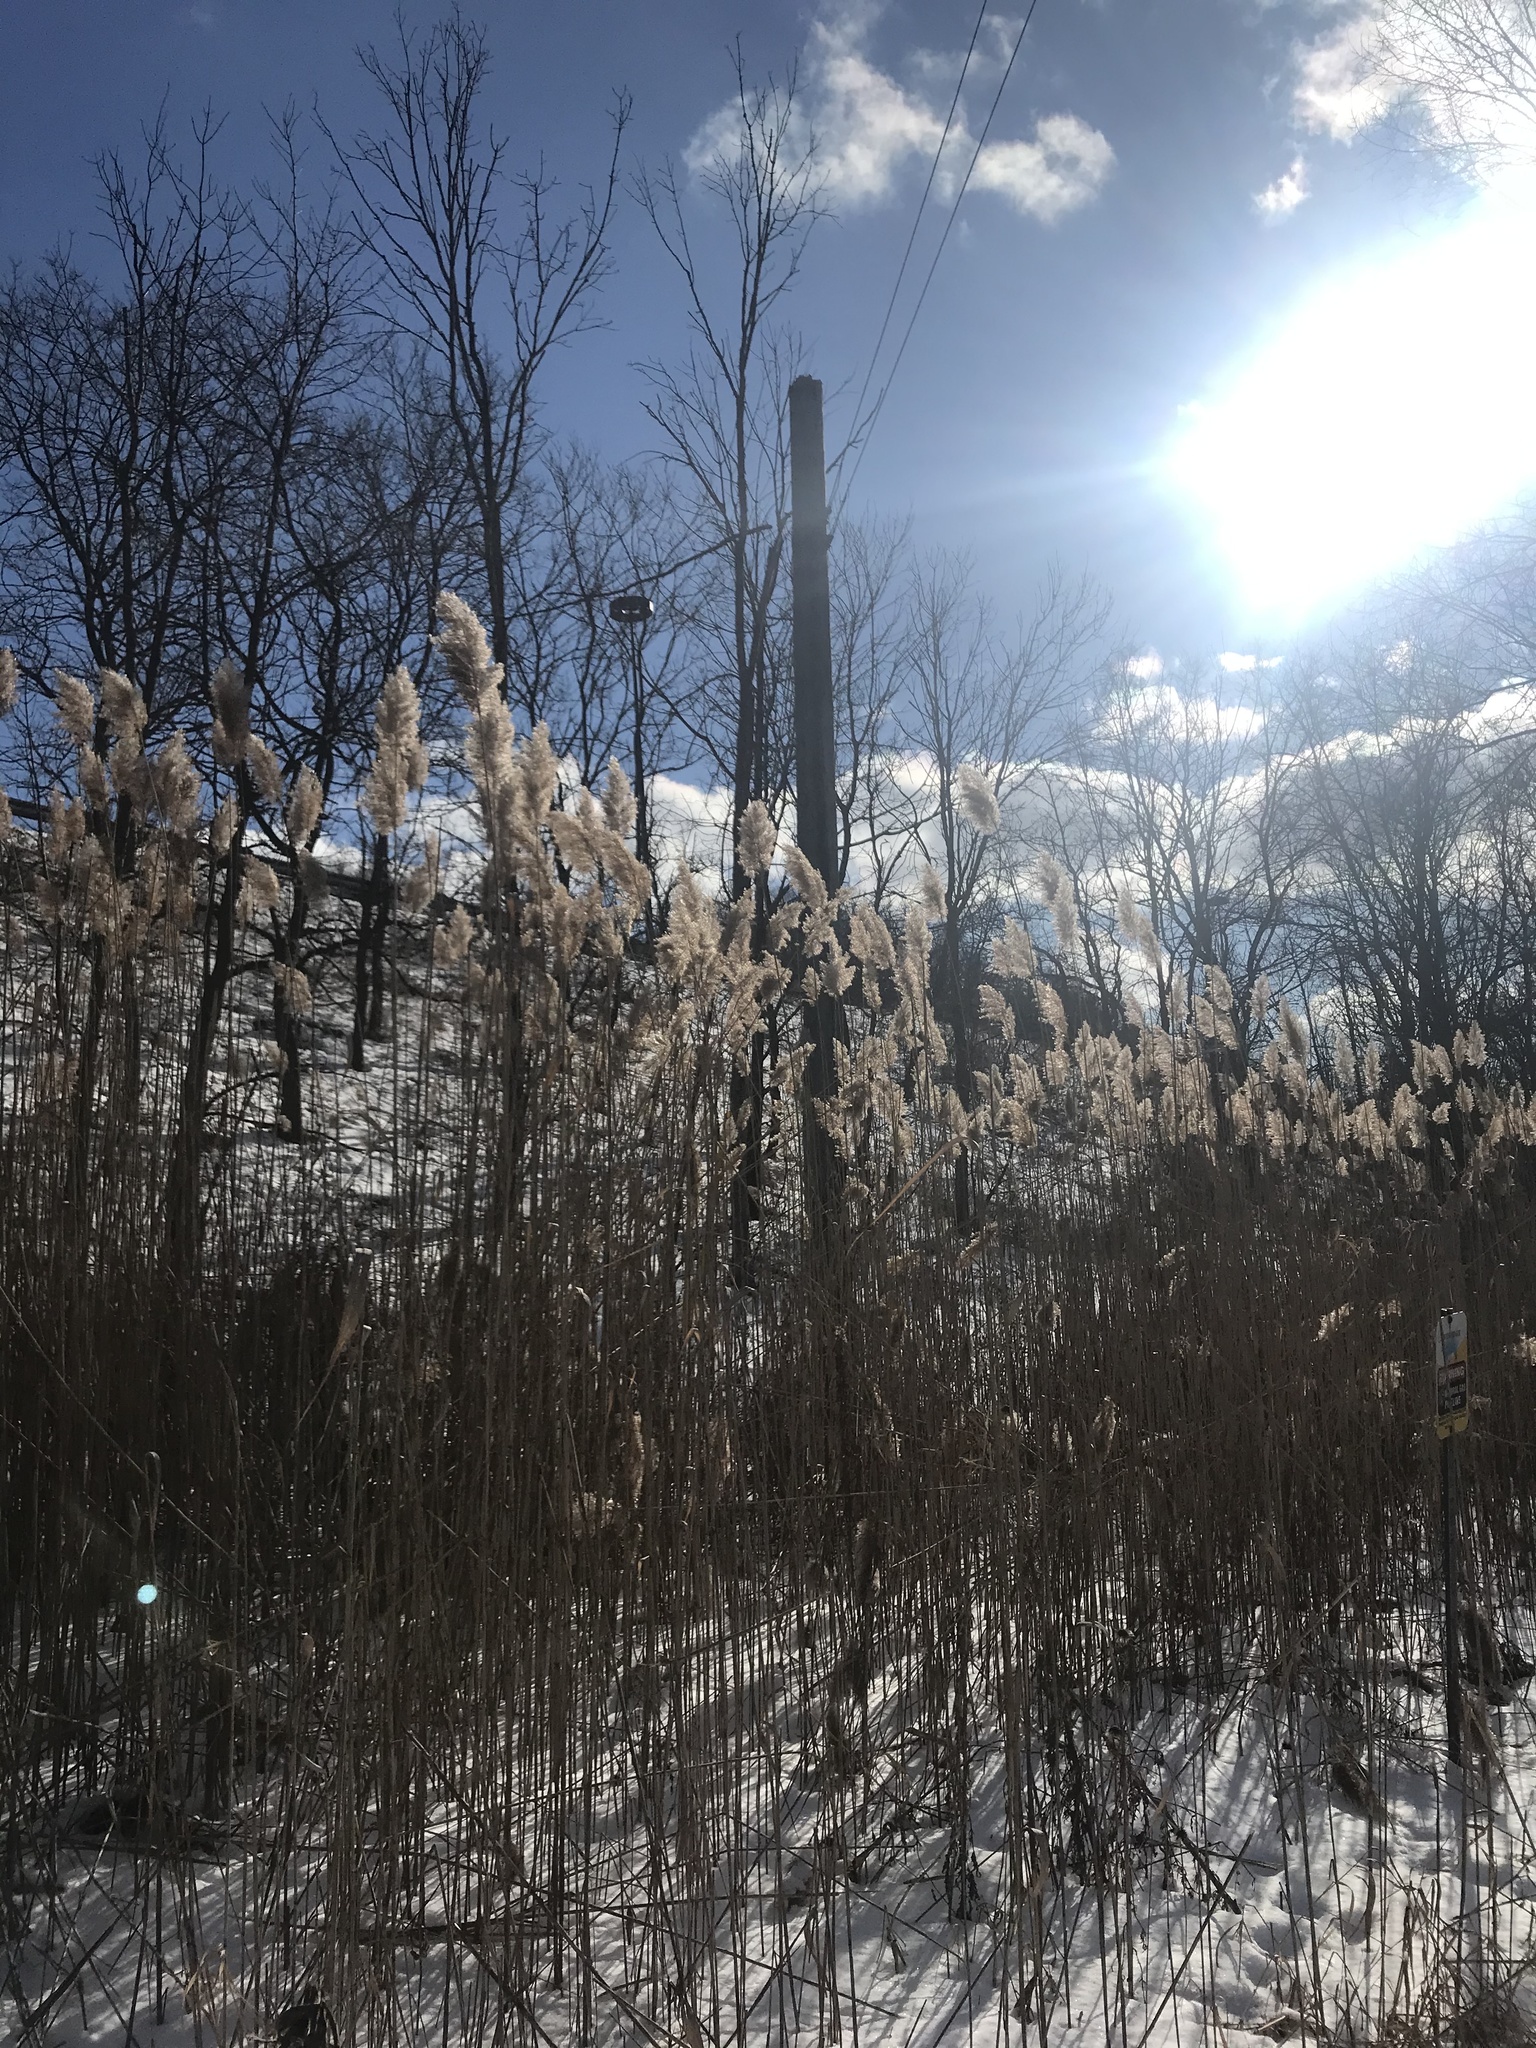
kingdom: Plantae
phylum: Tracheophyta
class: Liliopsida
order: Poales
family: Poaceae
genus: Phragmites
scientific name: Phragmites australis
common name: Common reed
